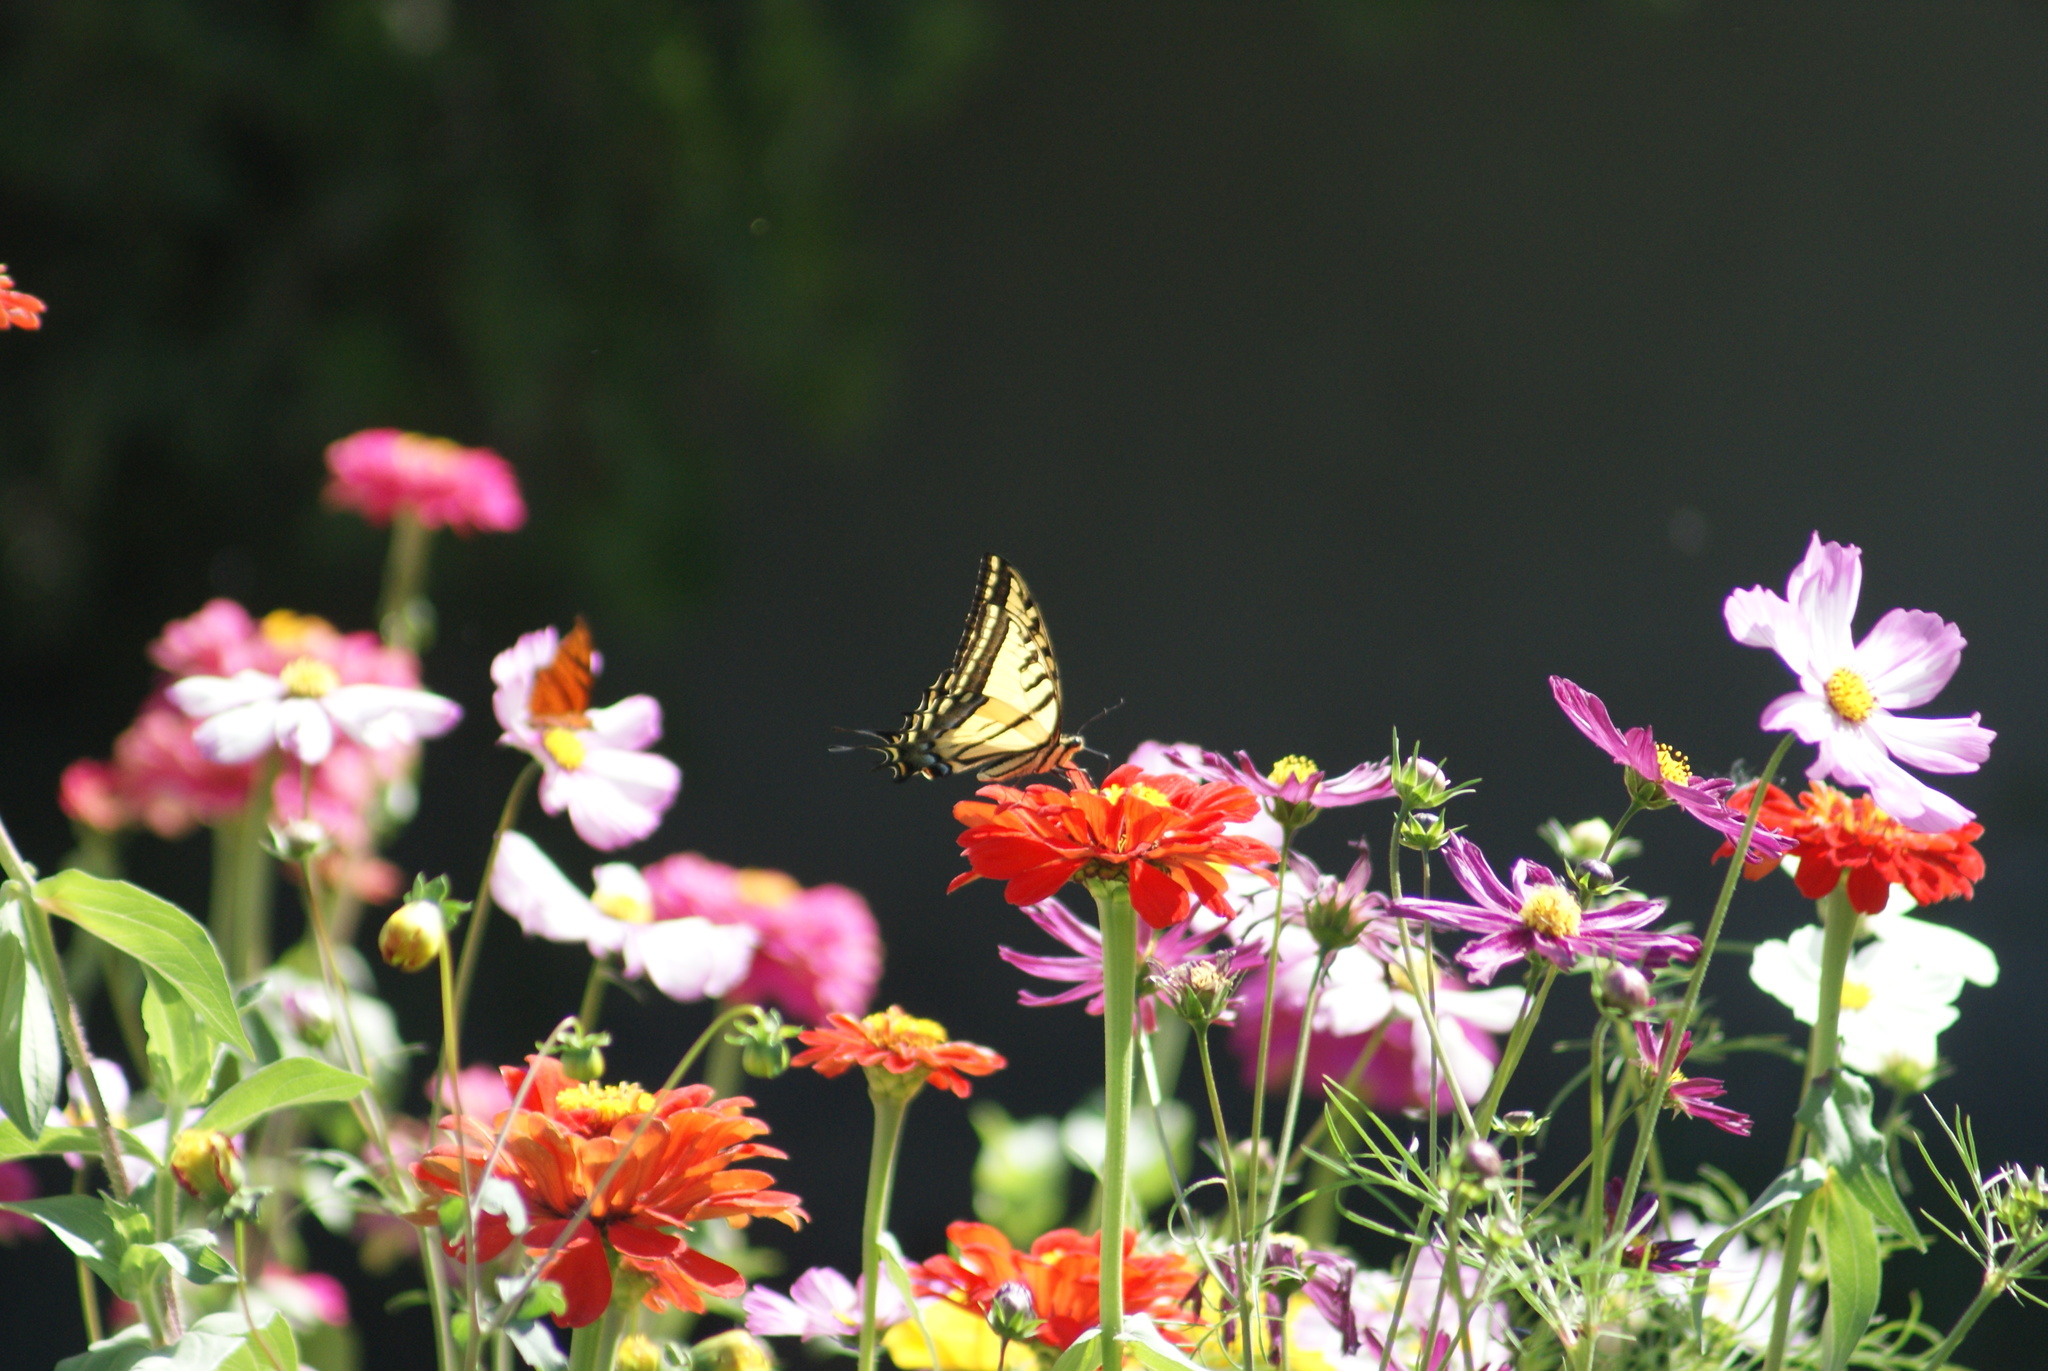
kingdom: Animalia
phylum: Arthropoda
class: Insecta
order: Lepidoptera
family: Papilionidae
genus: Papilio
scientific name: Papilio multicaudata
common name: Two-tailed tiger swallowtail
